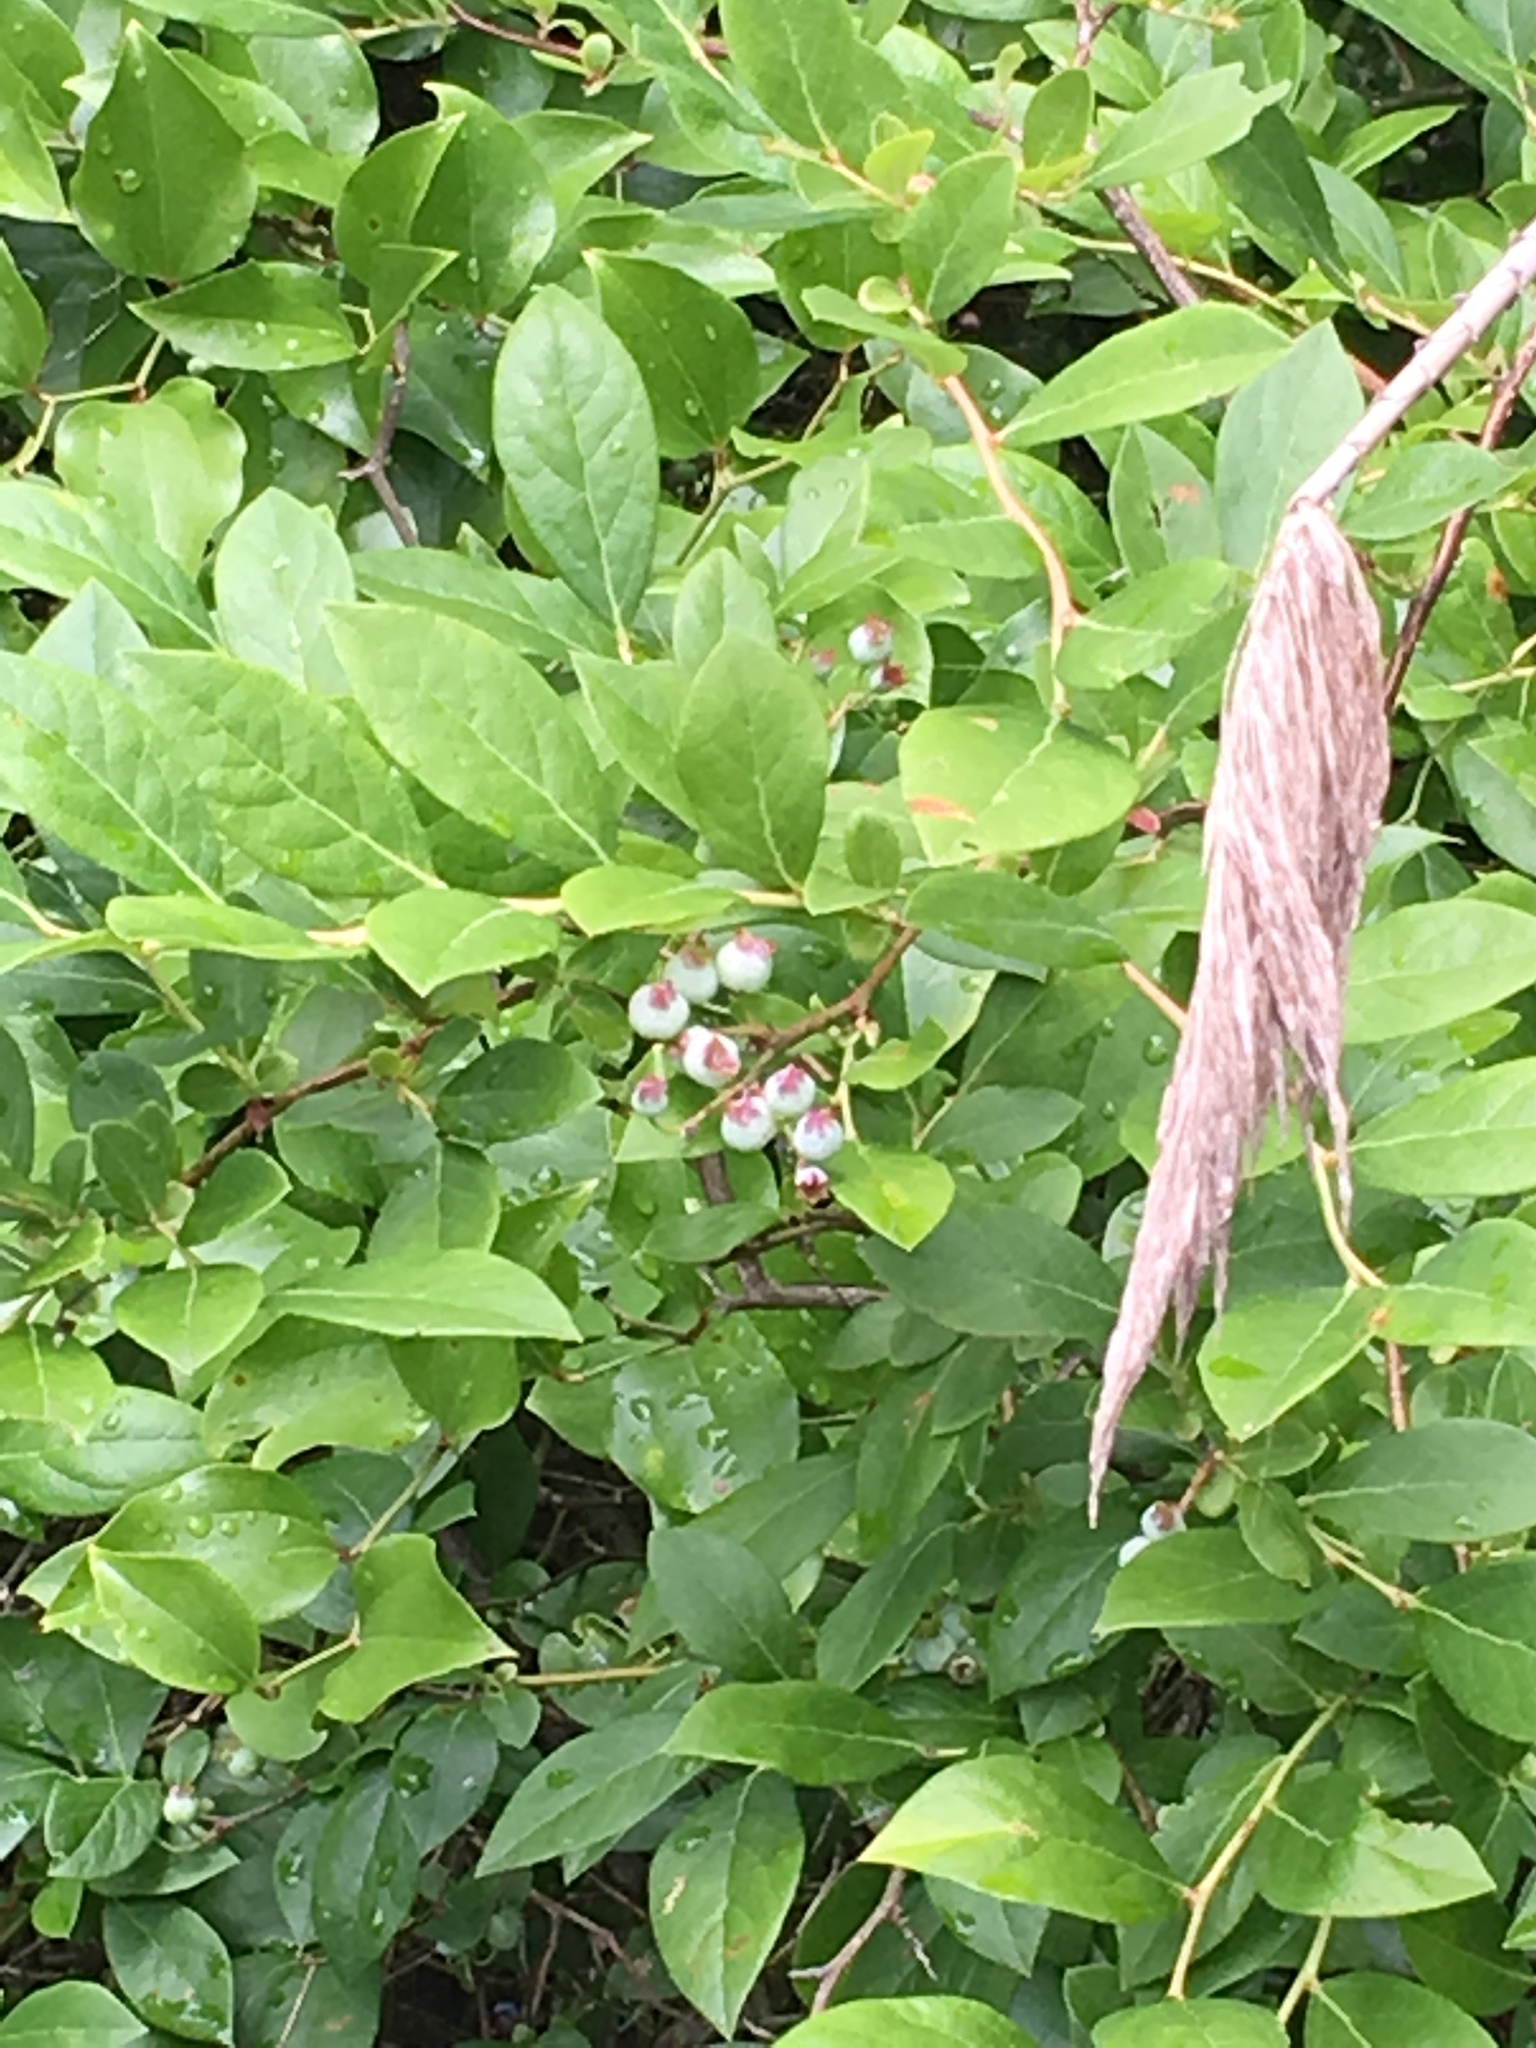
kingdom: Plantae
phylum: Tracheophyta
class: Magnoliopsida
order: Ericales
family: Ericaceae
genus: Vaccinium
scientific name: Vaccinium corymbosum
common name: Blueberry
